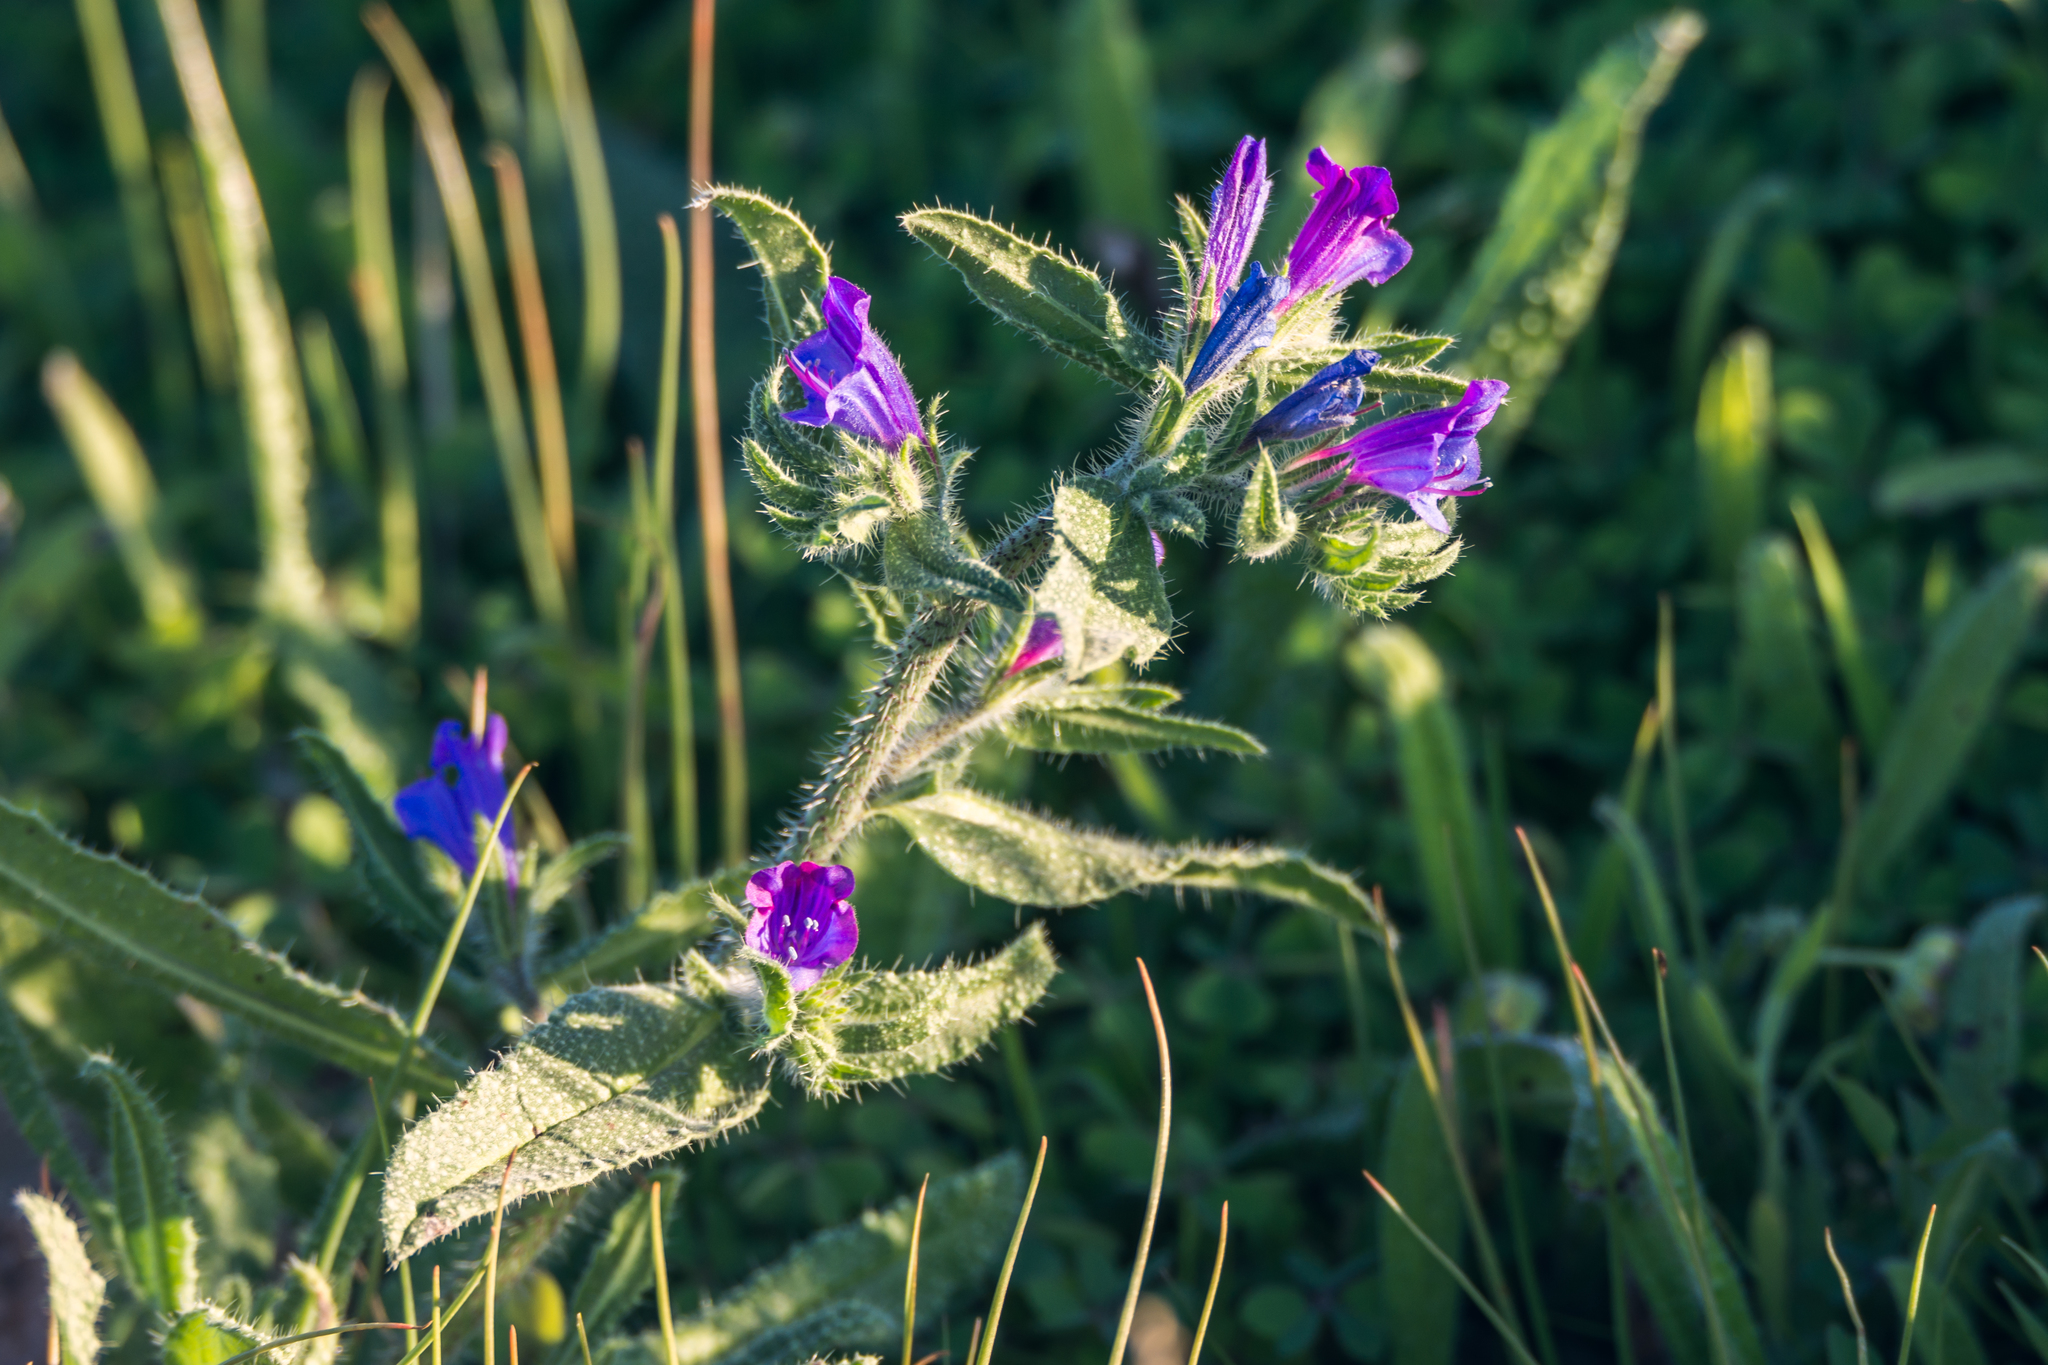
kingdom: Plantae
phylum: Tracheophyta
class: Magnoliopsida
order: Boraginales
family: Boraginaceae
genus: Echium
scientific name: Echium vulgare
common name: Common viper's bugloss
